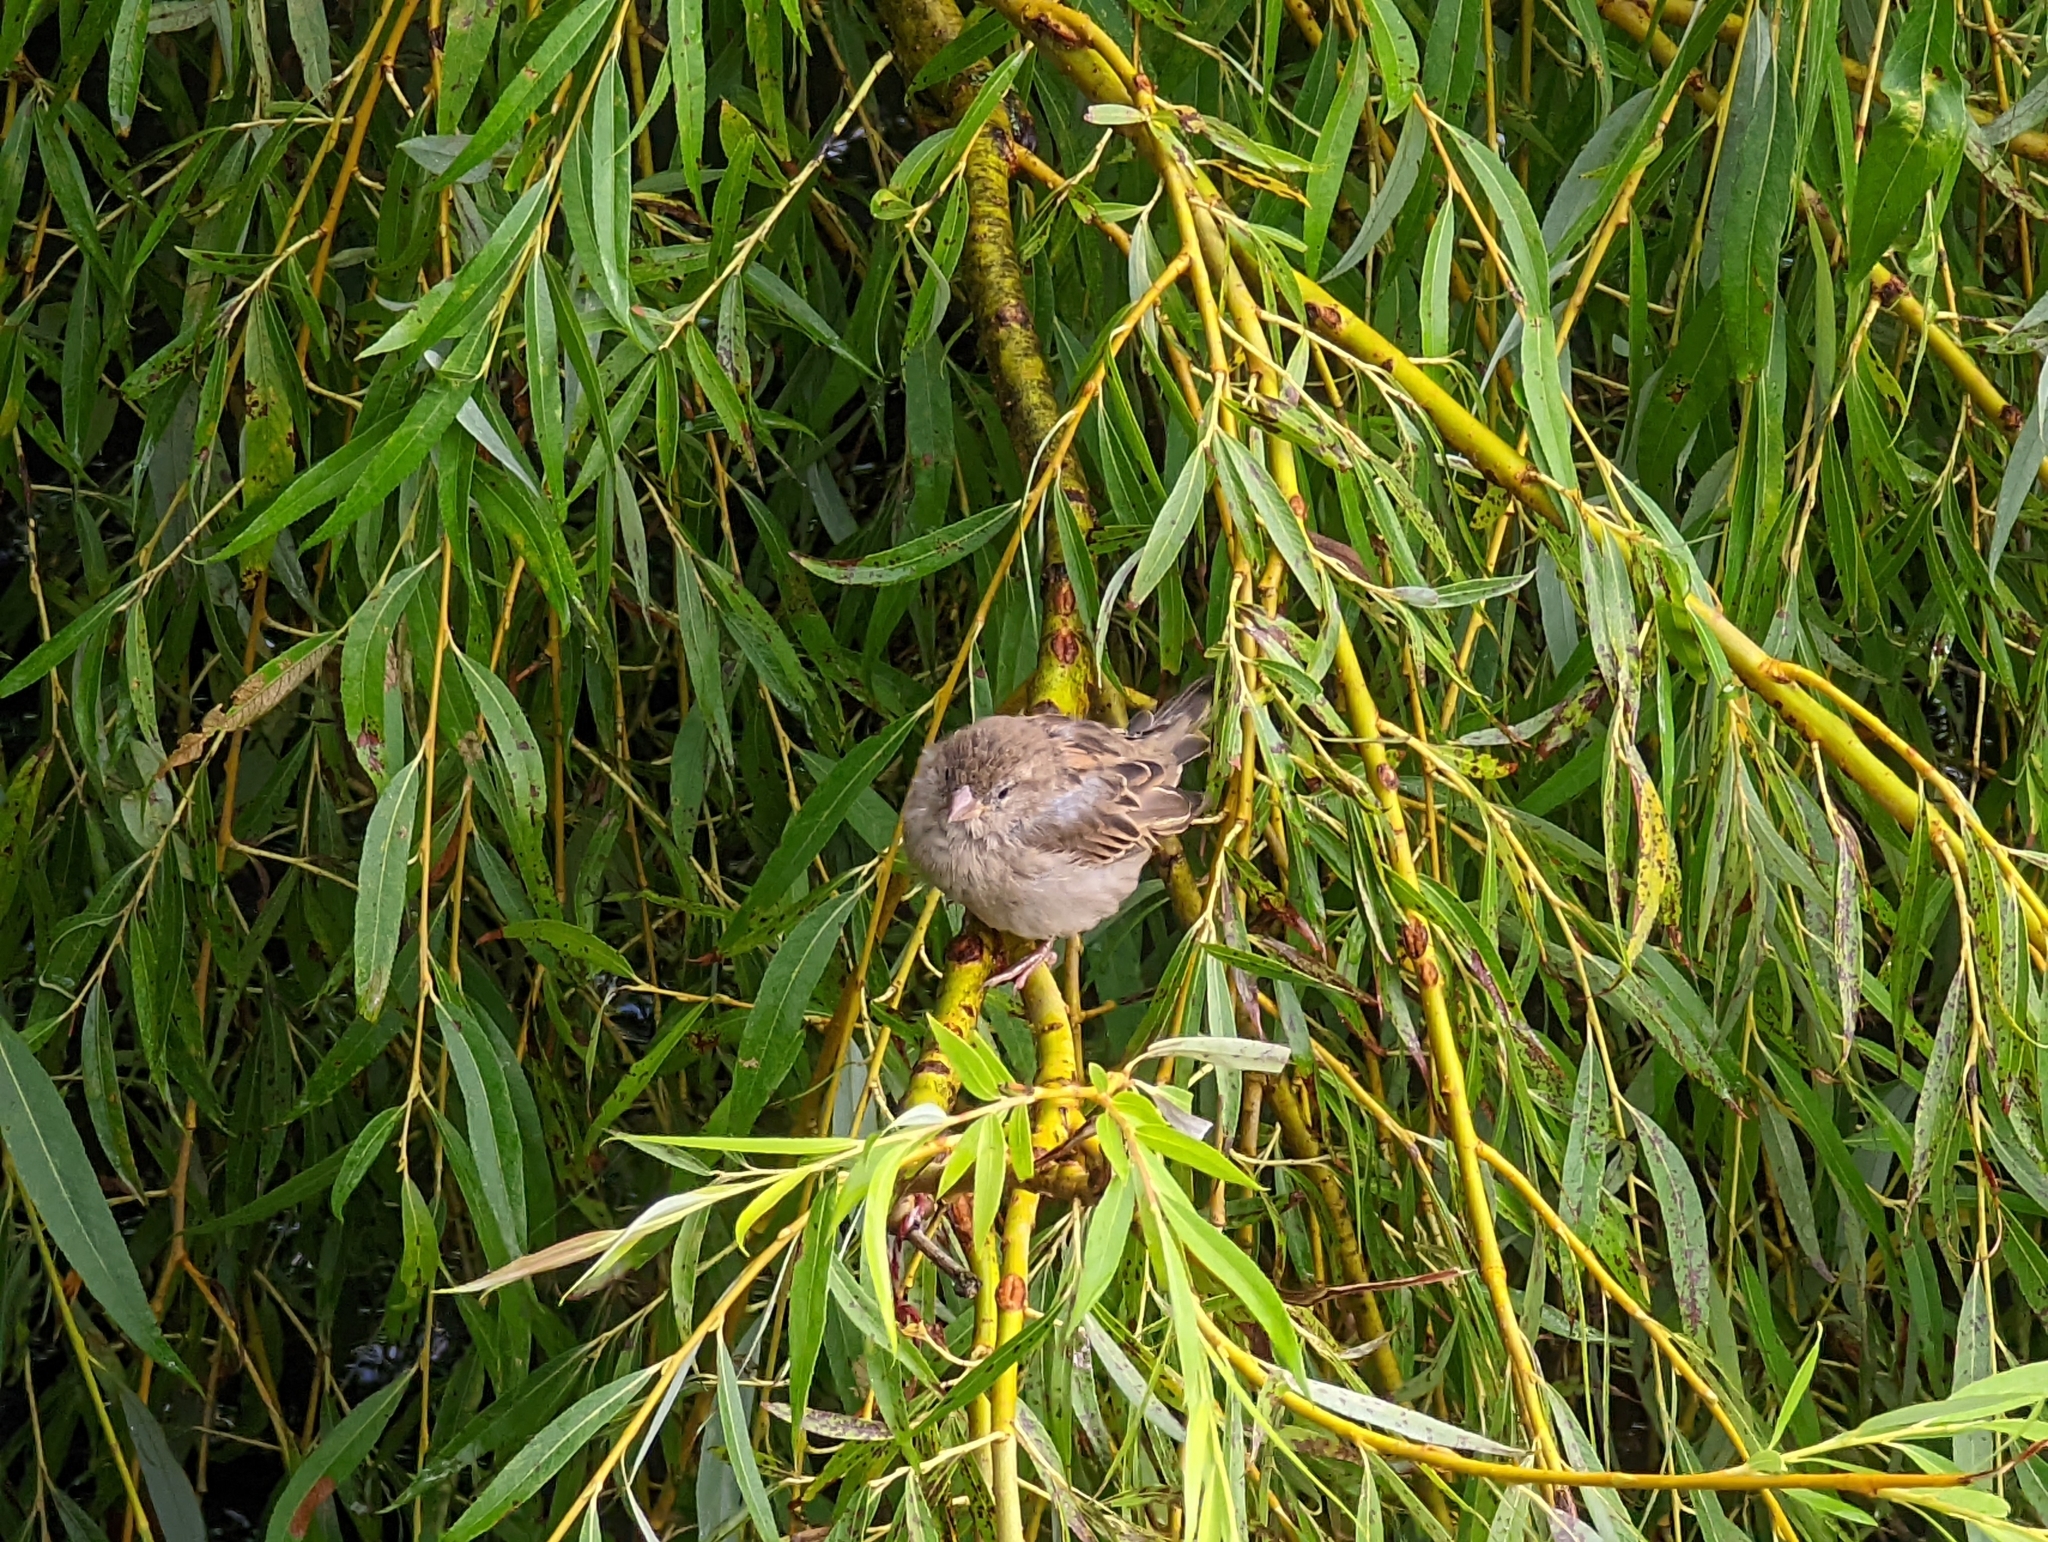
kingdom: Animalia
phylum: Chordata
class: Aves
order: Passeriformes
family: Passeridae
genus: Passer
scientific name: Passer domesticus
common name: House sparrow
